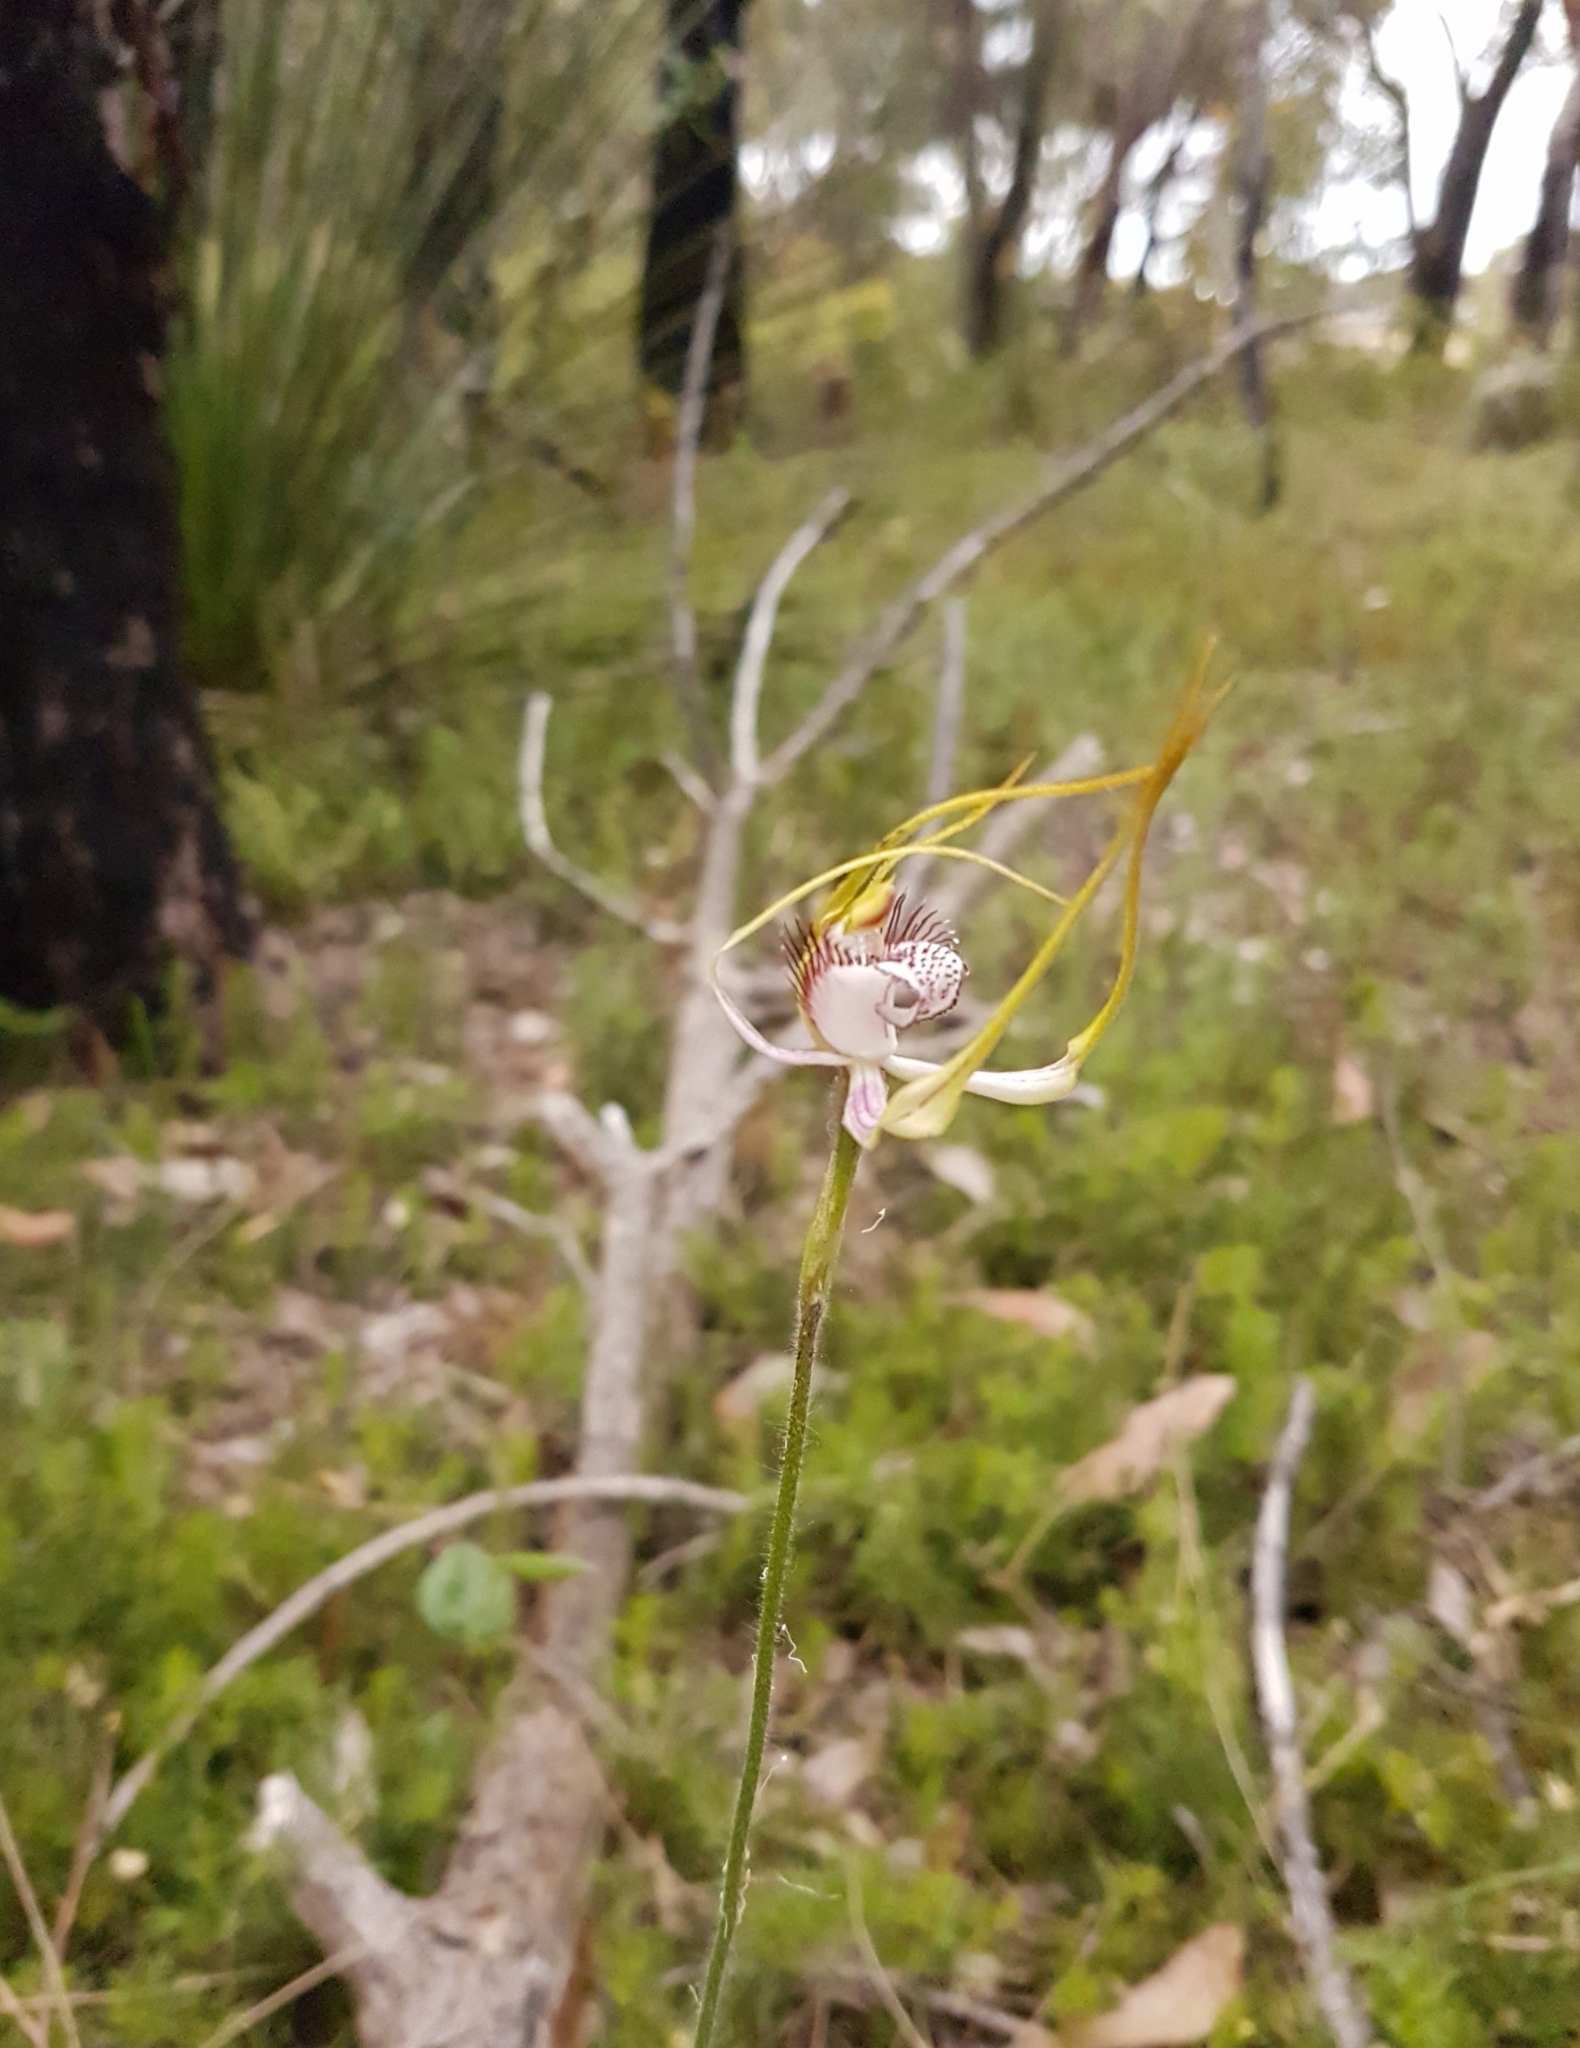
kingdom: Plantae
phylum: Tracheophyta
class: Liliopsida
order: Asparagales
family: Orchidaceae
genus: Caladenia
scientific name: Caladenia serotina
